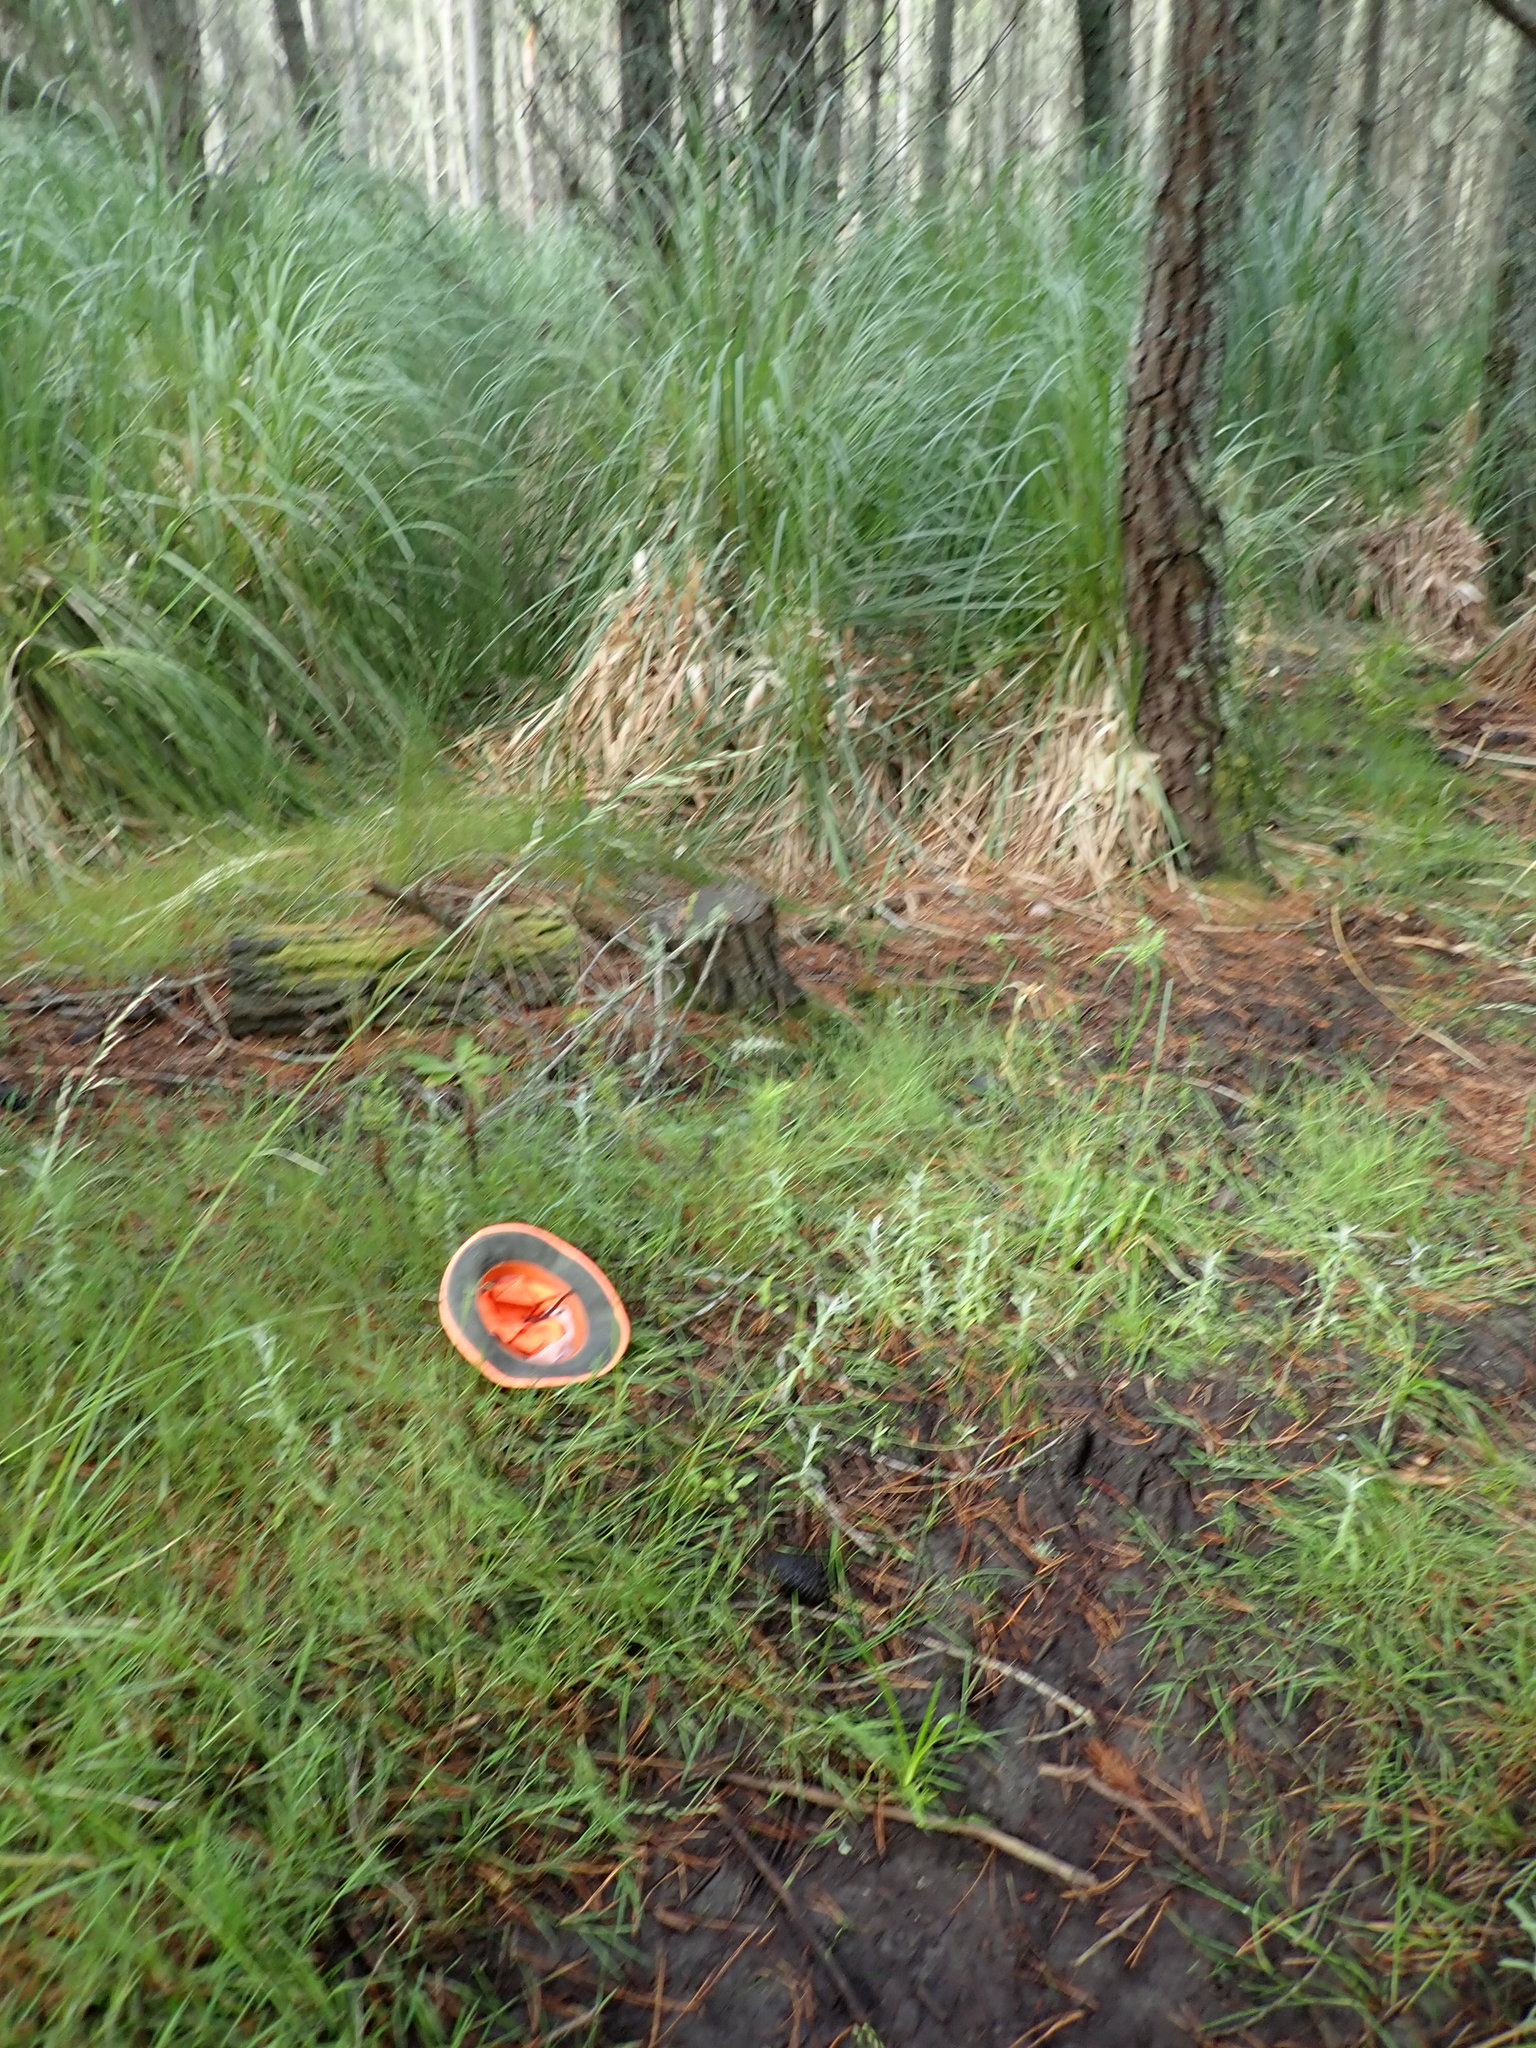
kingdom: Plantae
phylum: Tracheophyta
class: Magnoliopsida
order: Asterales
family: Asteraceae
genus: Senecio
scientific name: Senecio bipinnatisectus
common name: Australian fireweed
